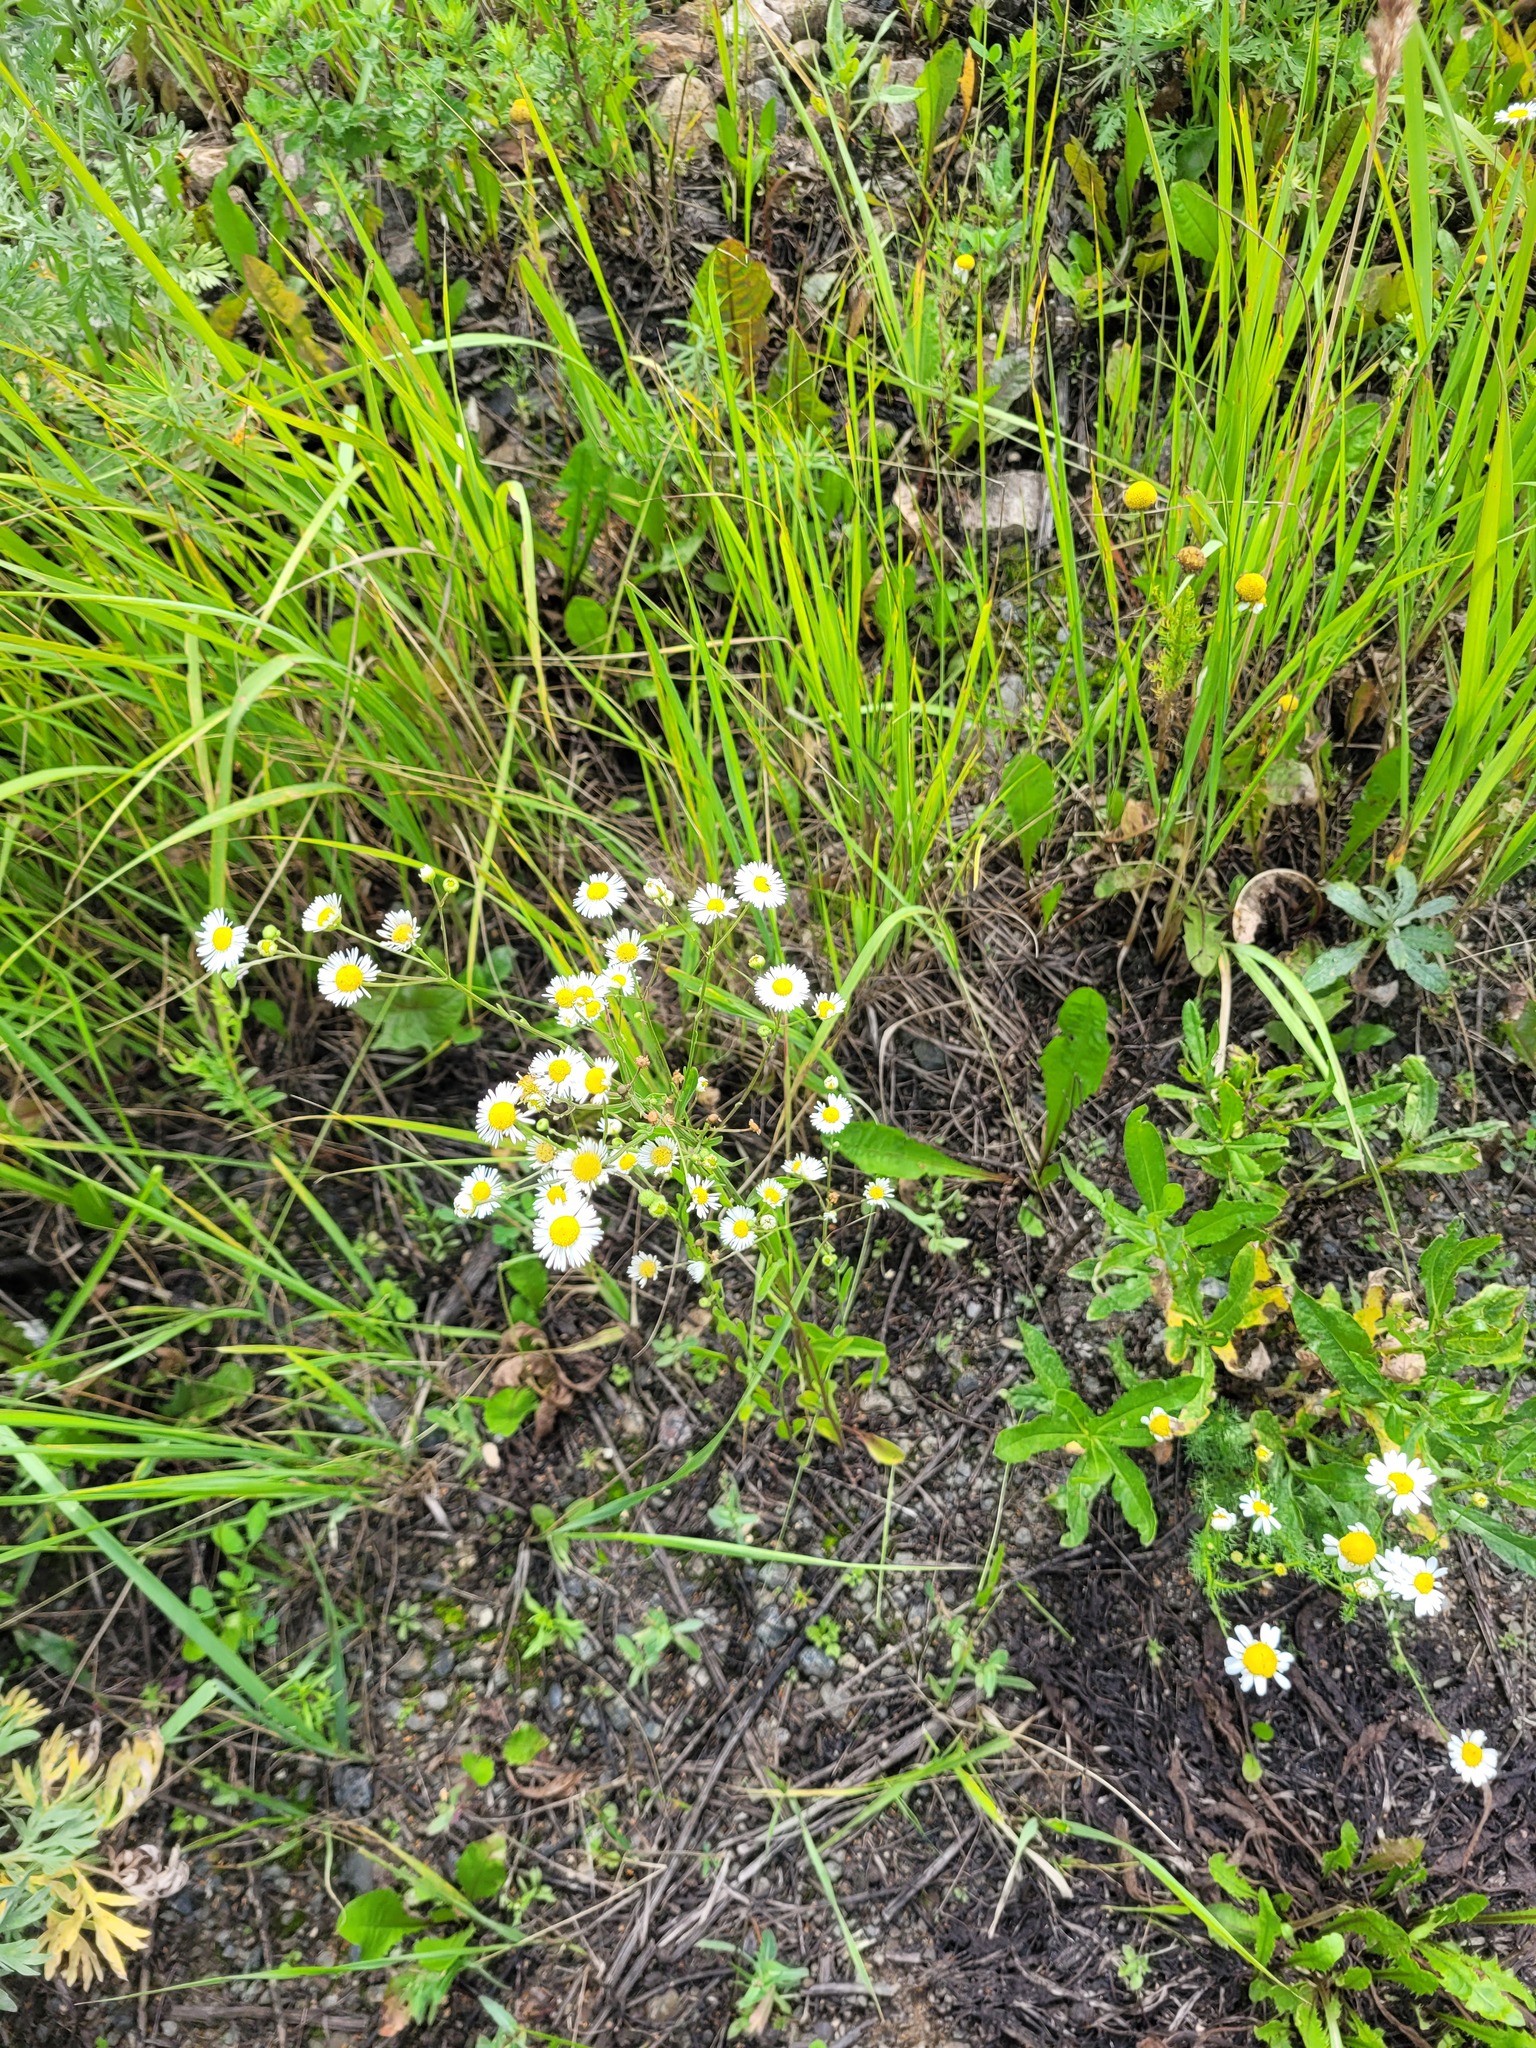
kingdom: Plantae
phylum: Tracheophyta
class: Magnoliopsida
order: Asterales
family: Asteraceae
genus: Erigeron
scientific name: Erigeron annuus
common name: Tall fleabane
